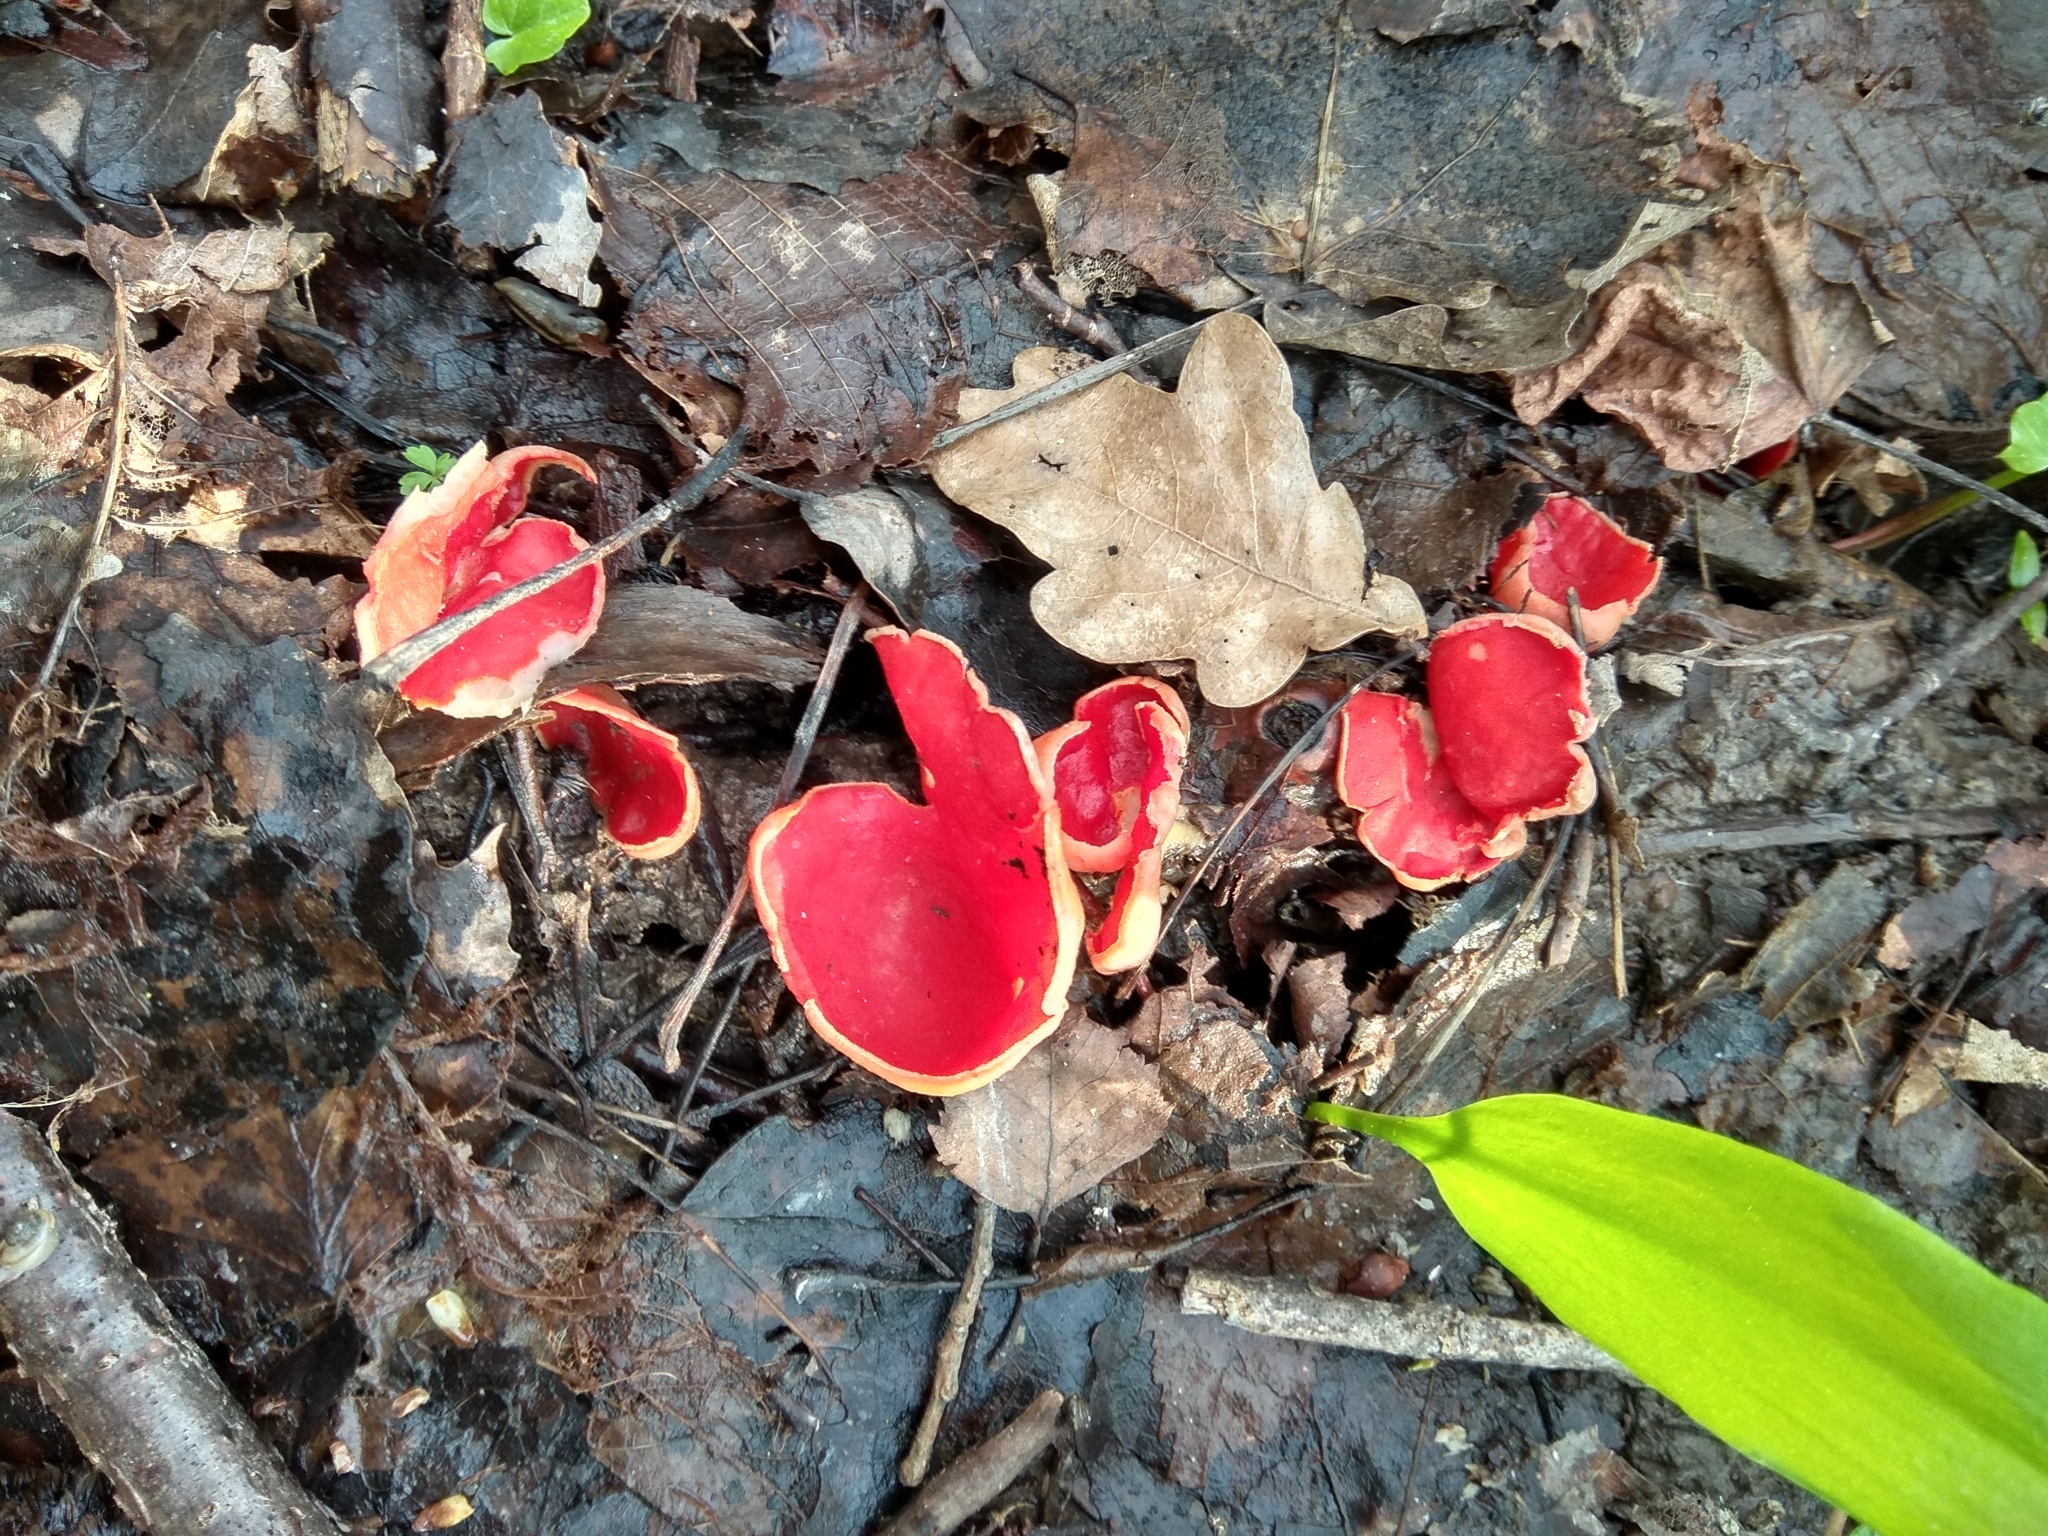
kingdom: Fungi
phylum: Ascomycota
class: Pezizomycetes
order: Pezizales
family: Sarcoscyphaceae
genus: Sarcoscypha
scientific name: Sarcoscypha
